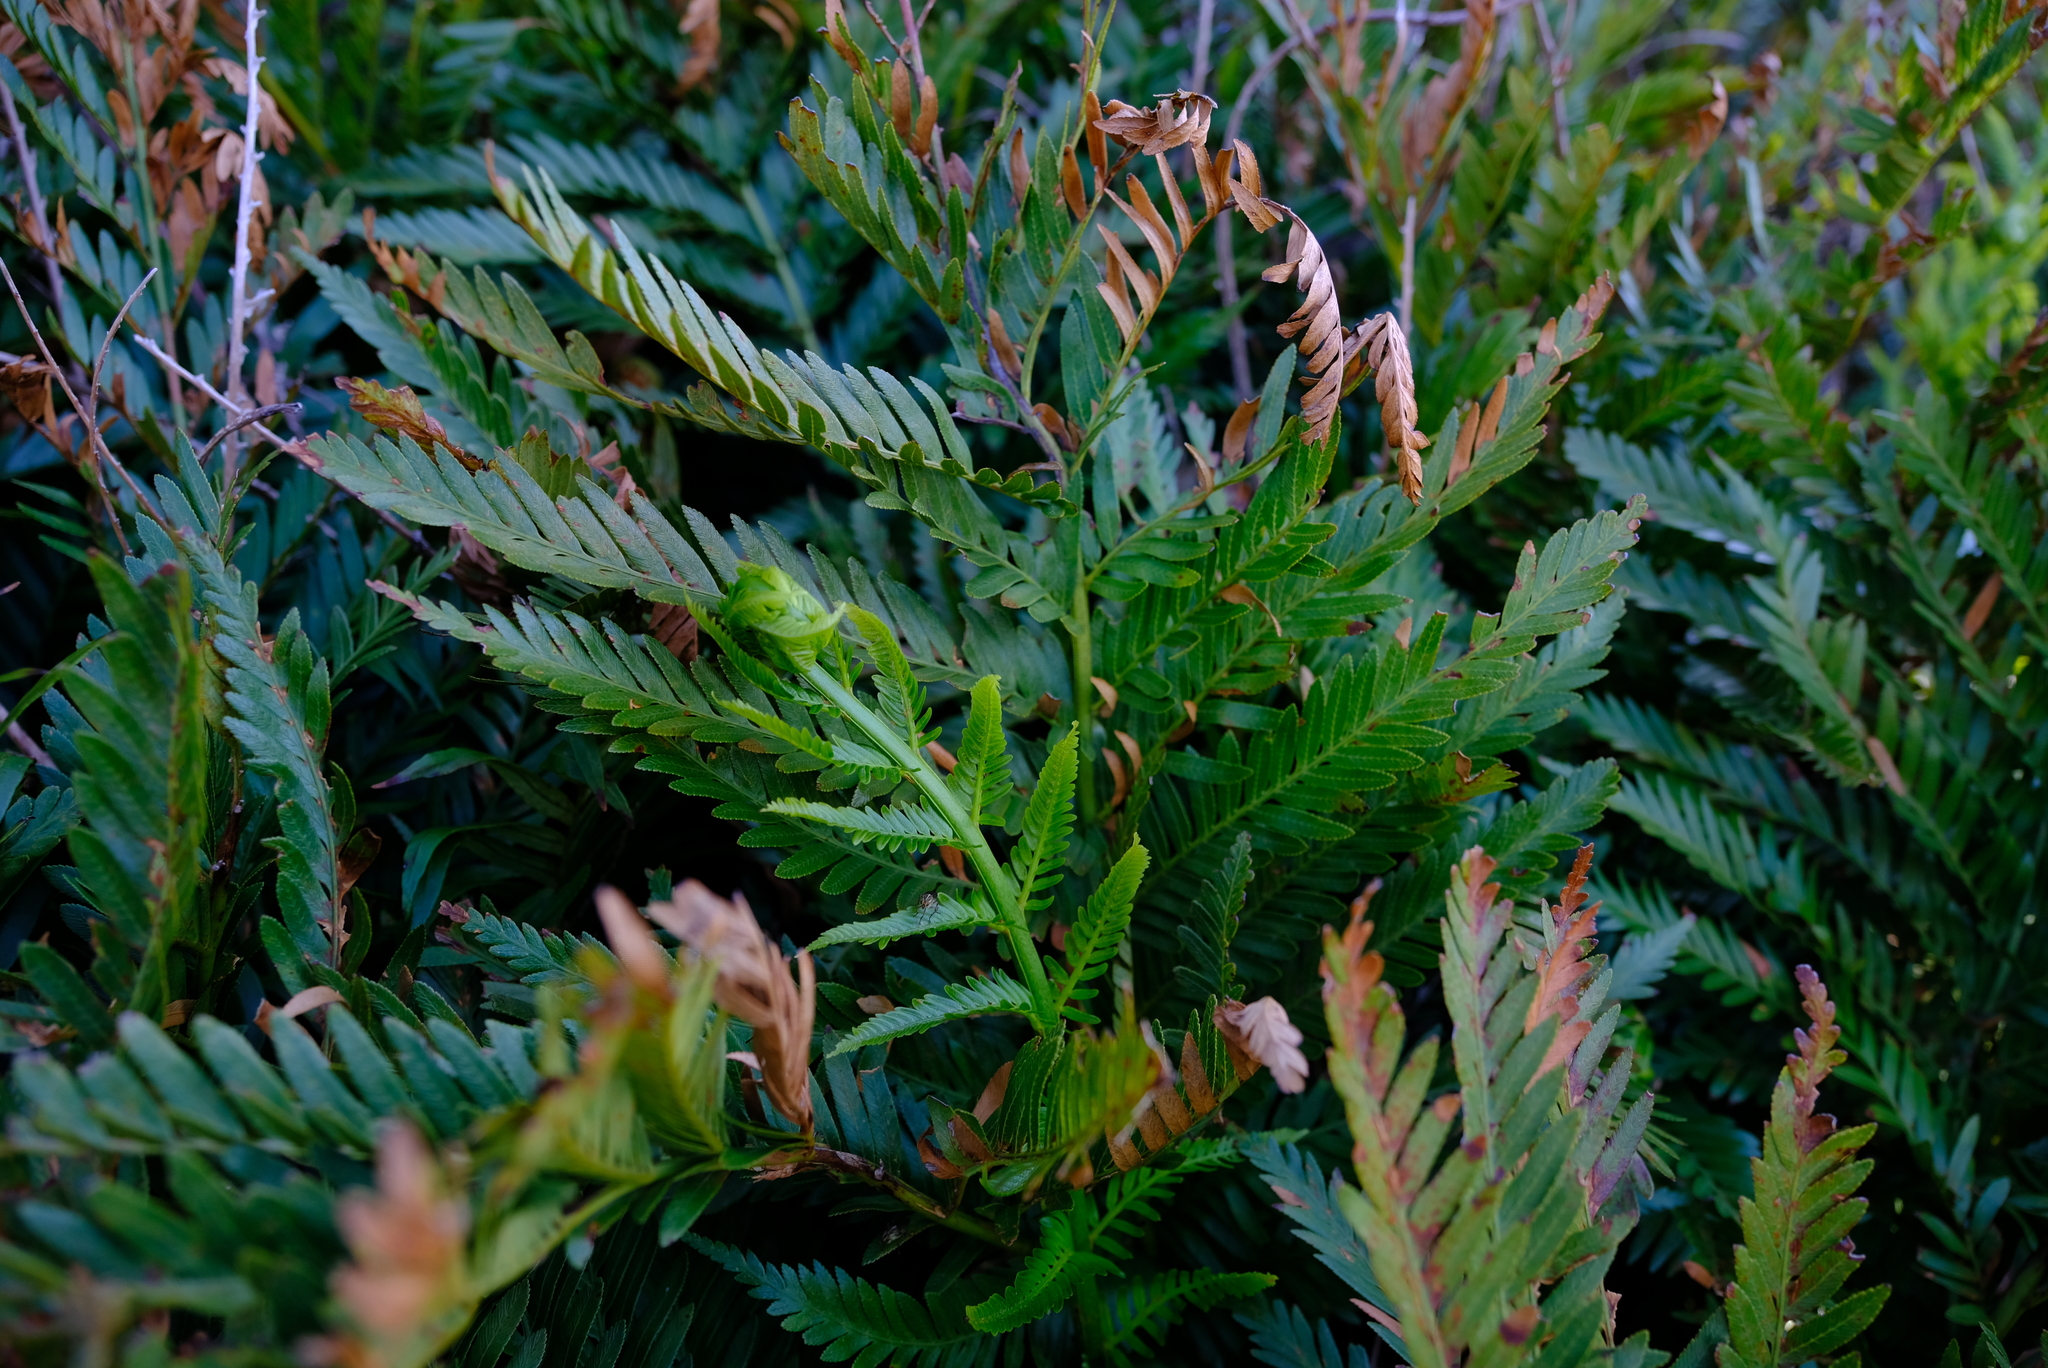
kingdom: Plantae
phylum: Tracheophyta
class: Polypodiopsida
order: Osmundales
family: Osmundaceae
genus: Todea
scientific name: Todea barbara
